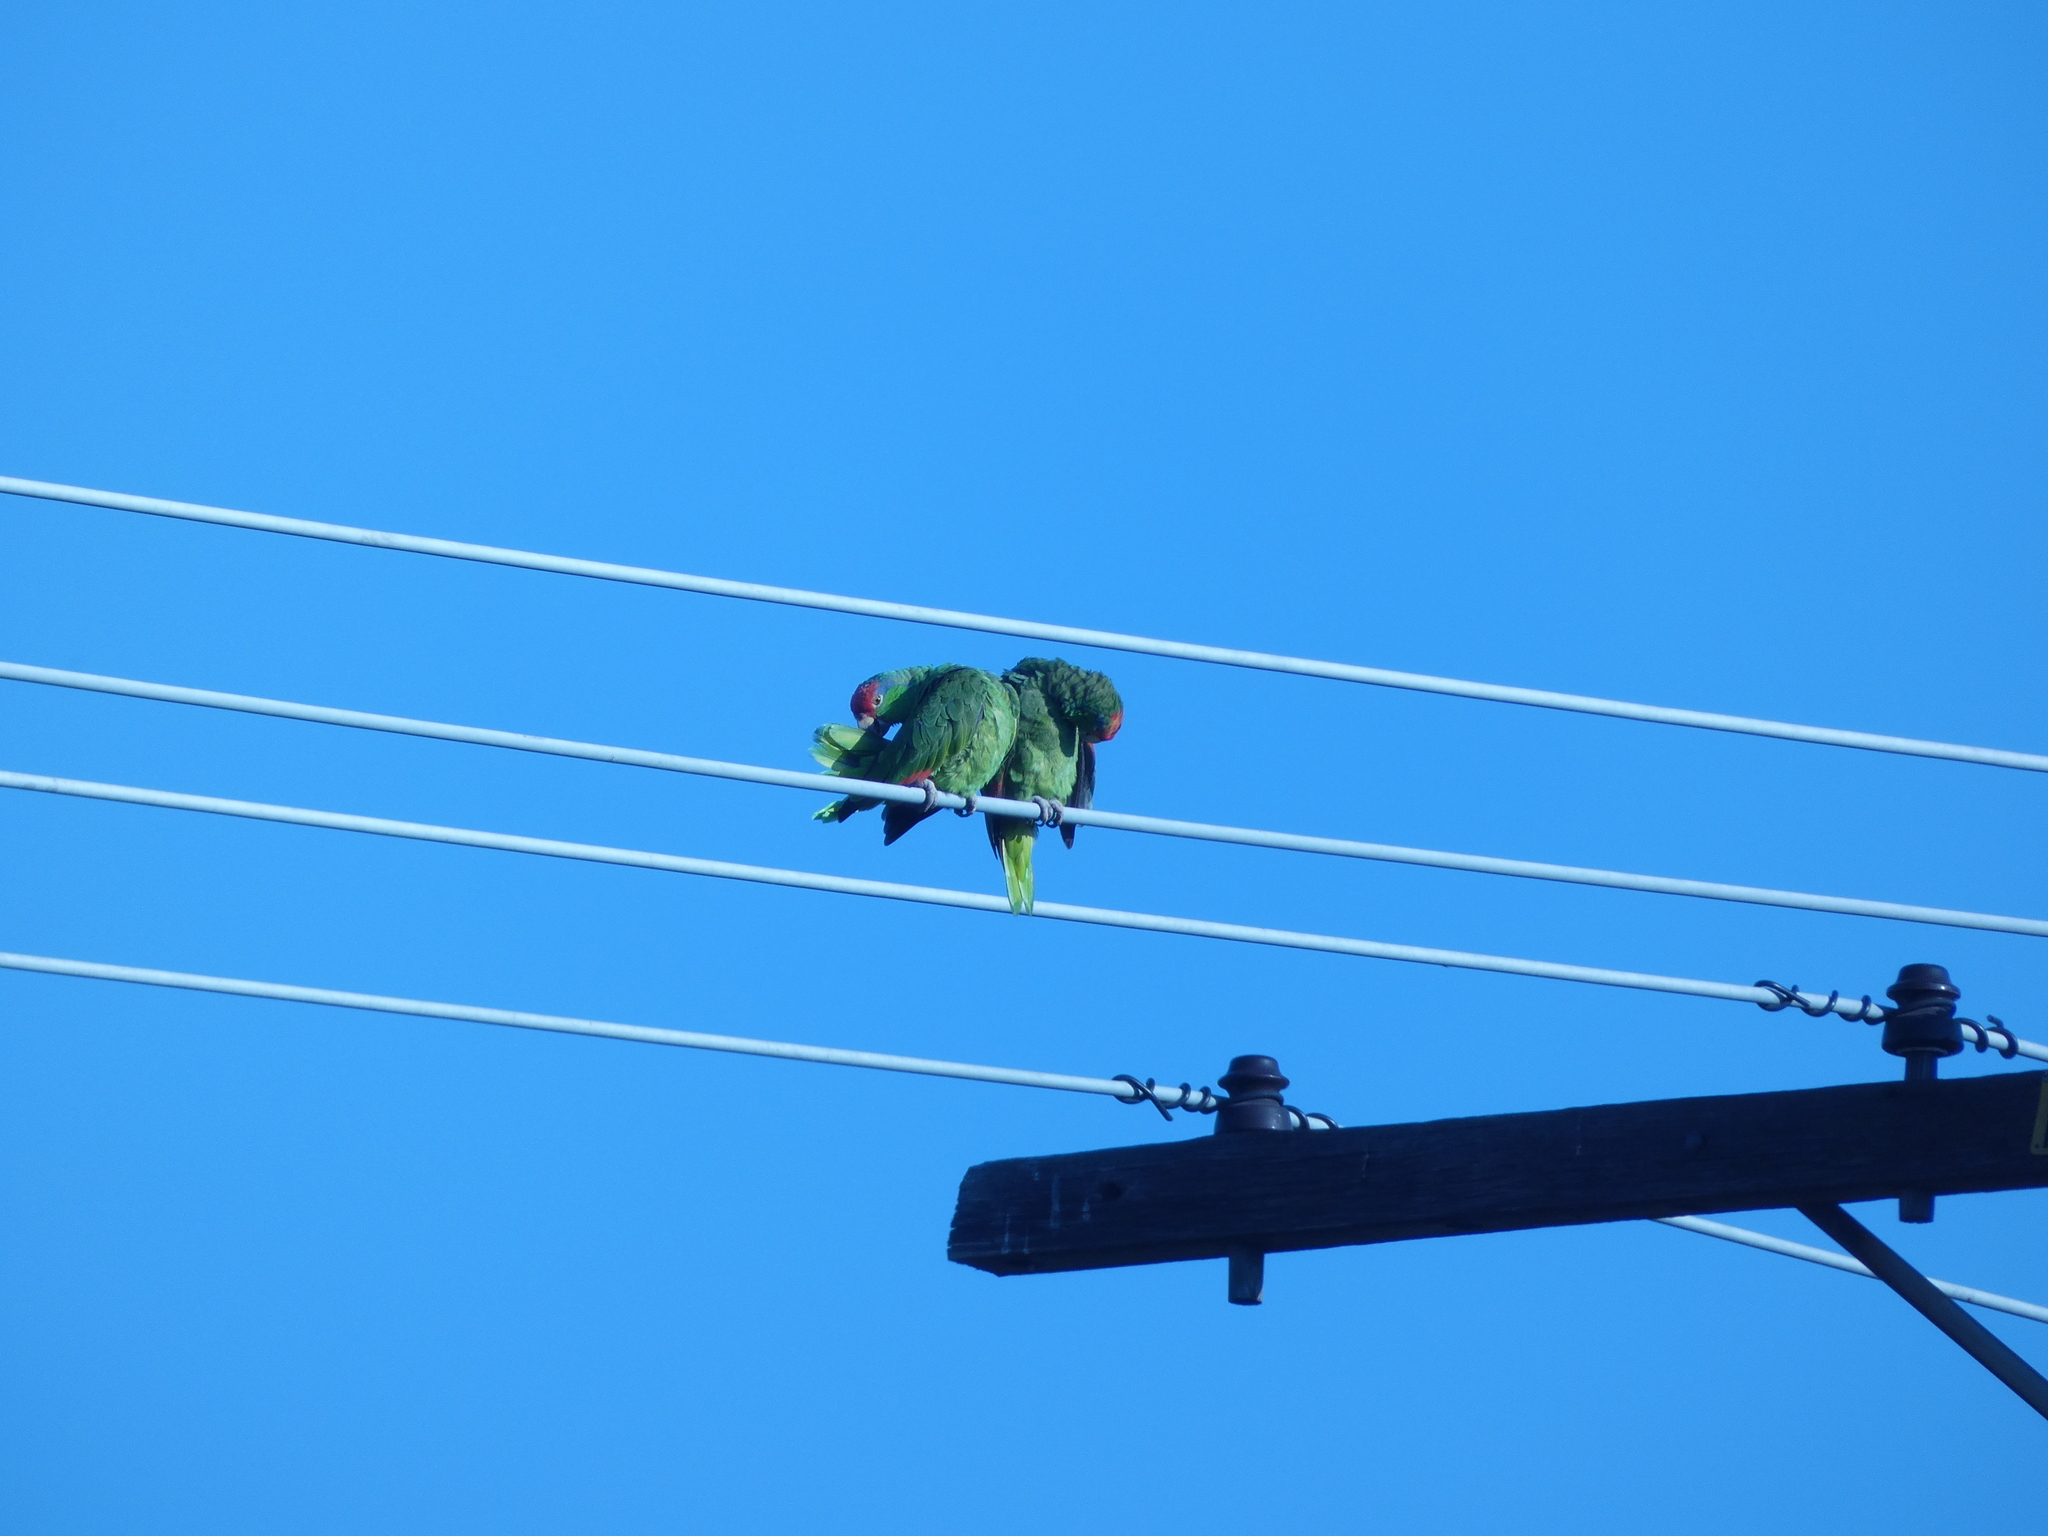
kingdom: Animalia
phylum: Chordata
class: Aves
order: Psittaciformes
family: Psittacidae
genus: Amazona
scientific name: Amazona viridigenalis
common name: Red-crowned amazon
